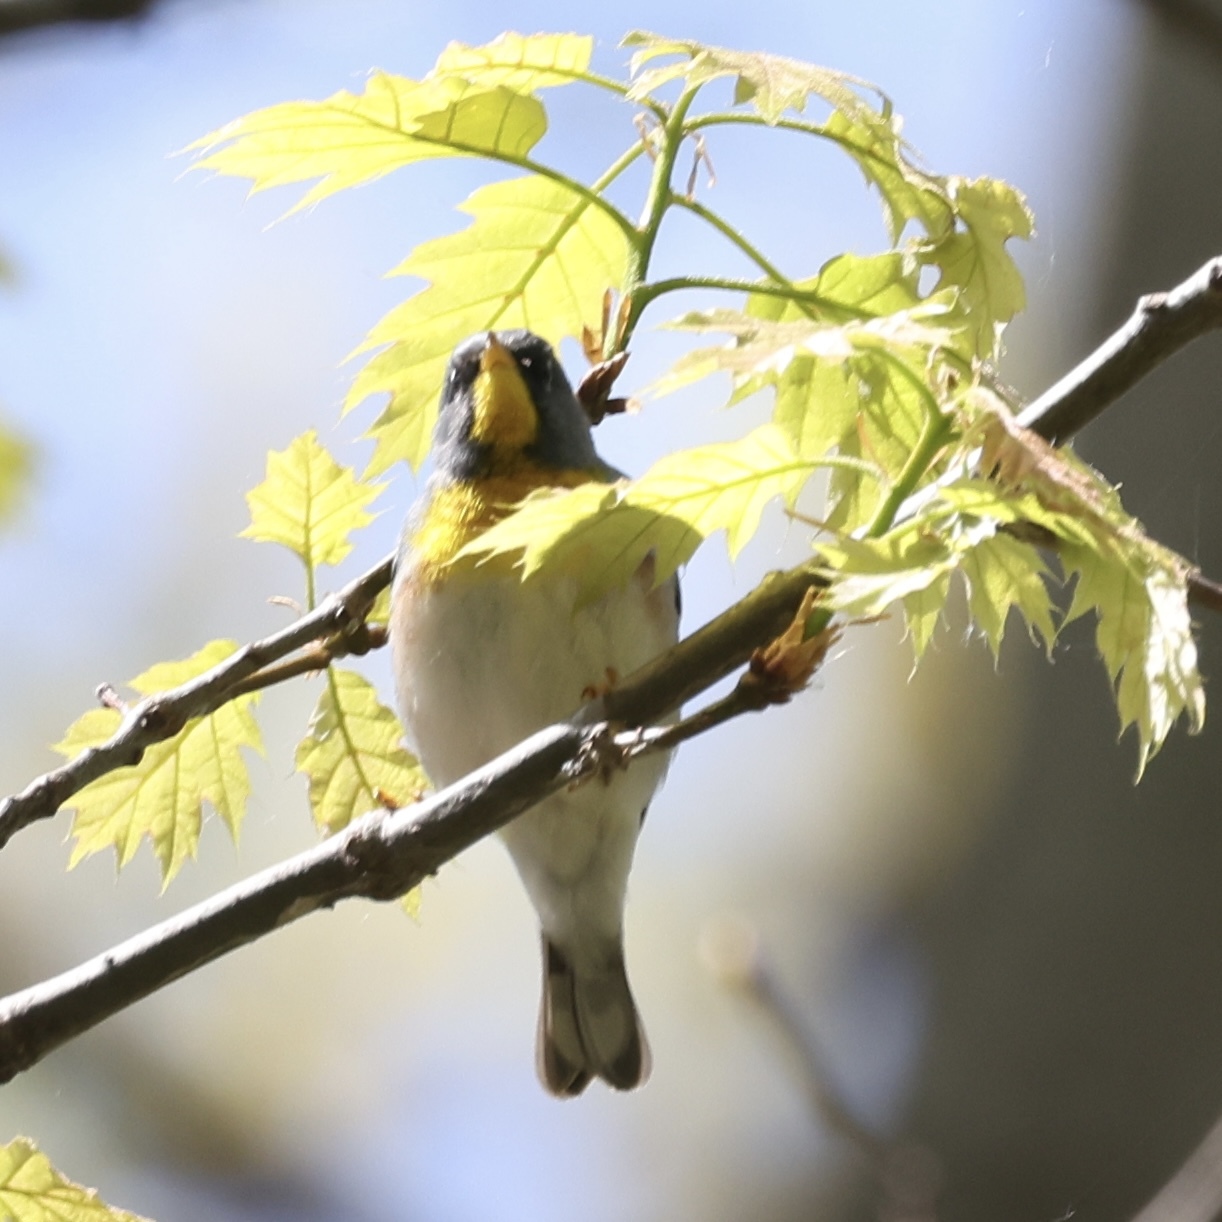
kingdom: Animalia
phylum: Chordata
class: Aves
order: Passeriformes
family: Parulidae
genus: Setophaga
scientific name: Setophaga americana
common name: Northern parula
